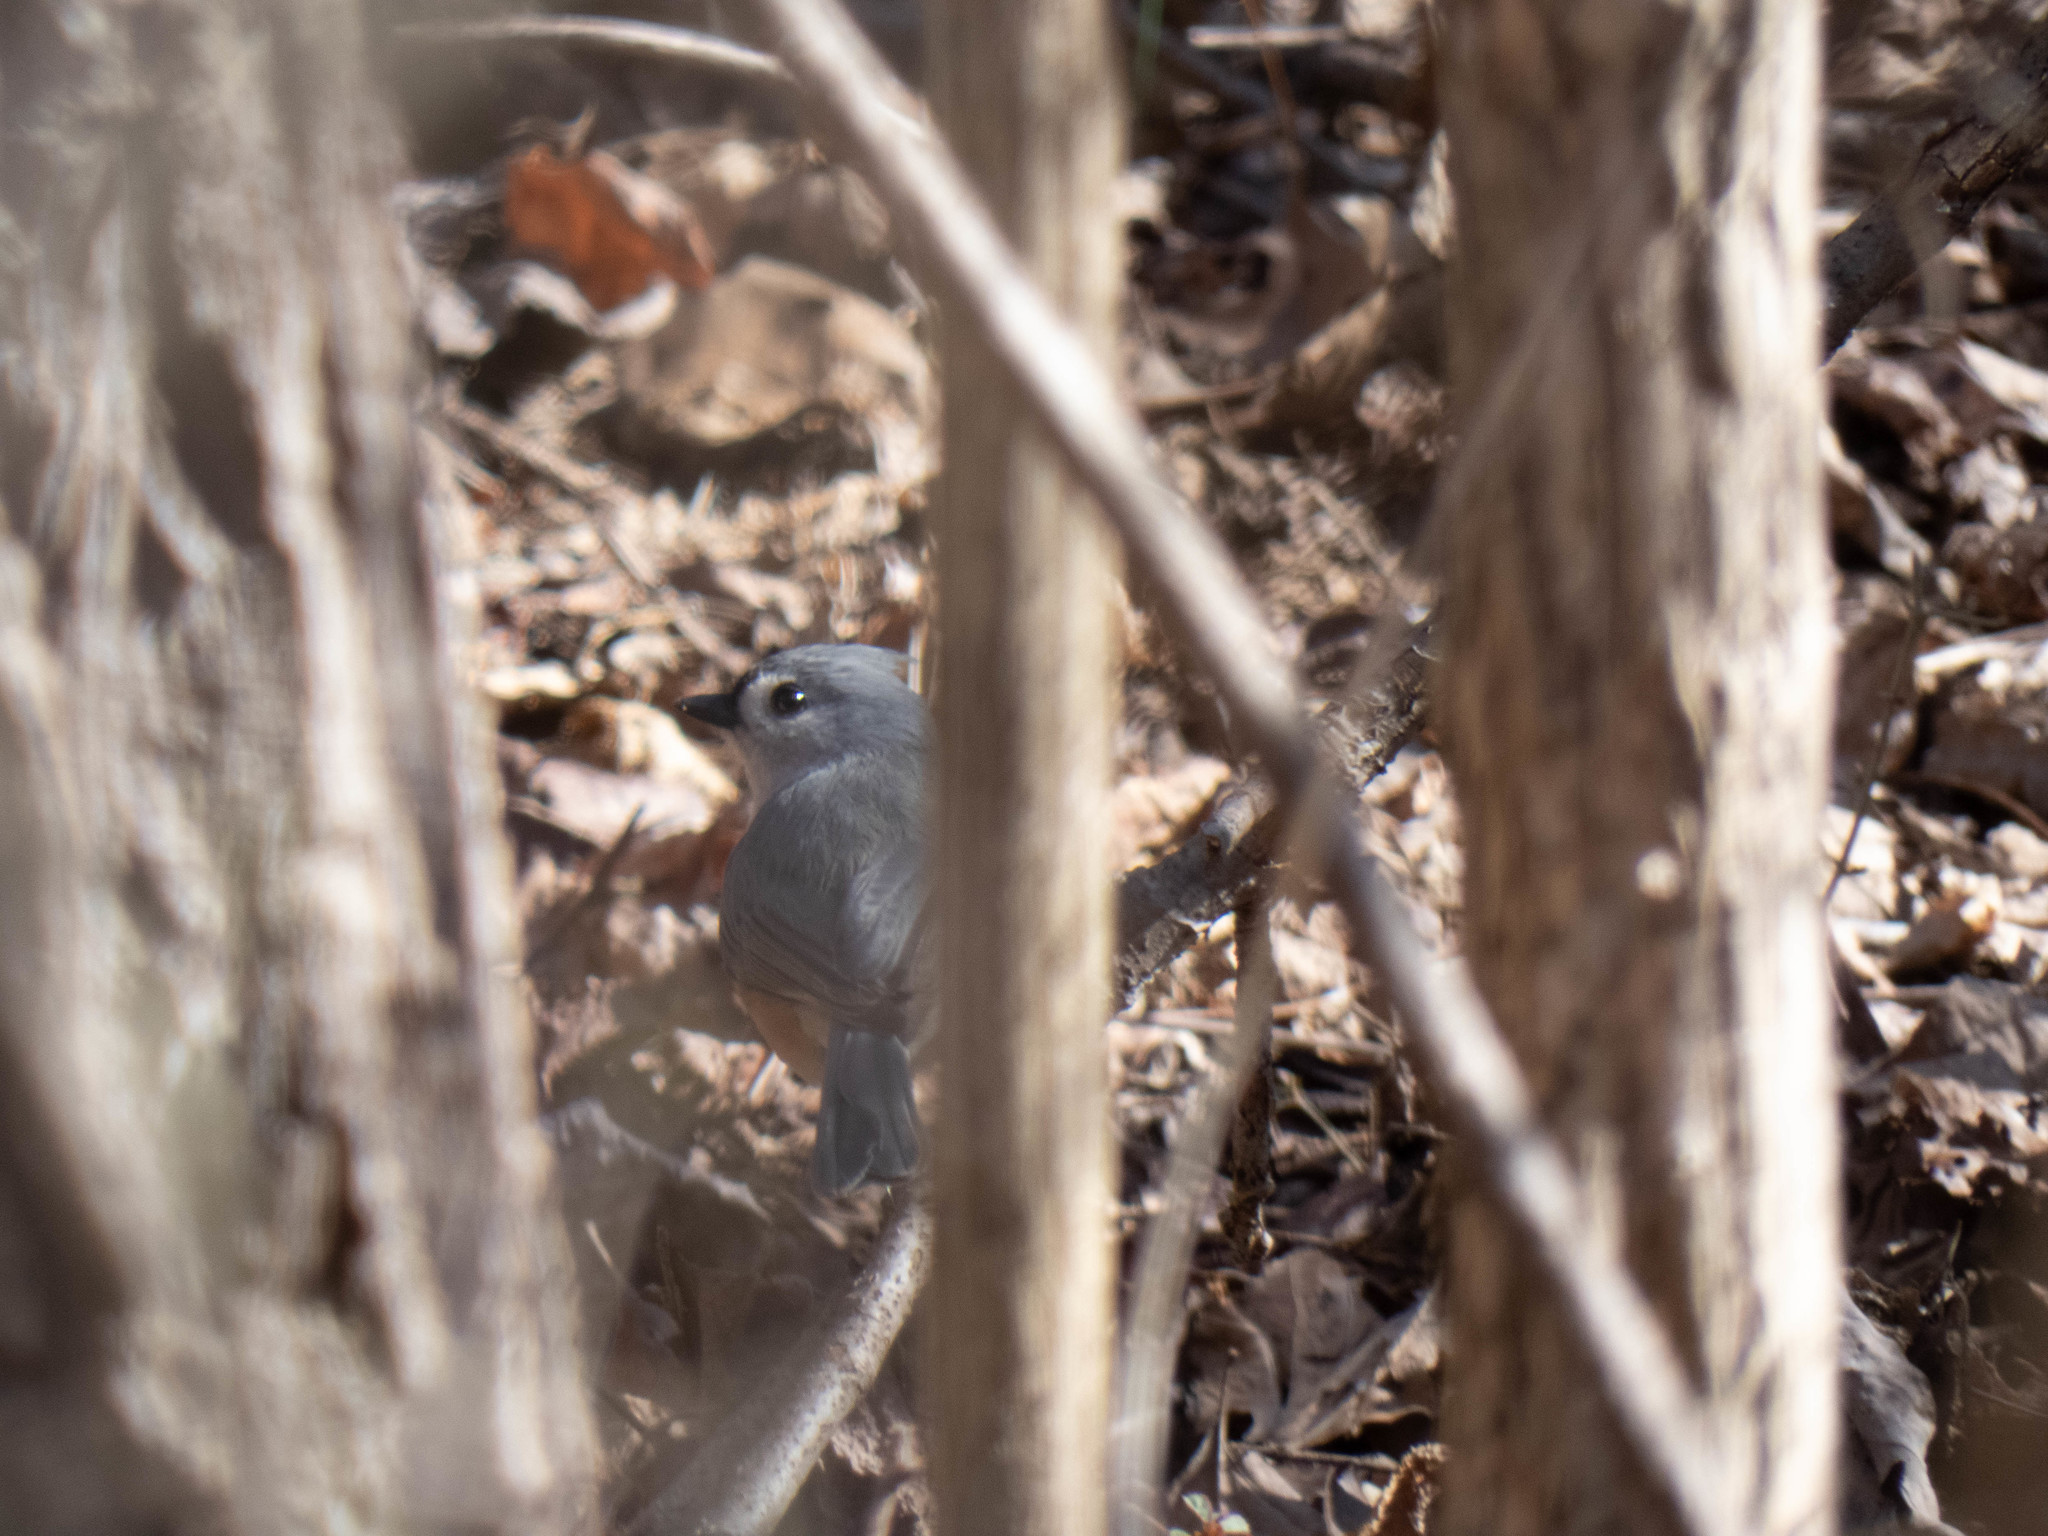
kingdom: Animalia
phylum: Chordata
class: Aves
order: Passeriformes
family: Paridae
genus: Baeolophus
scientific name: Baeolophus bicolor
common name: Tufted titmouse
